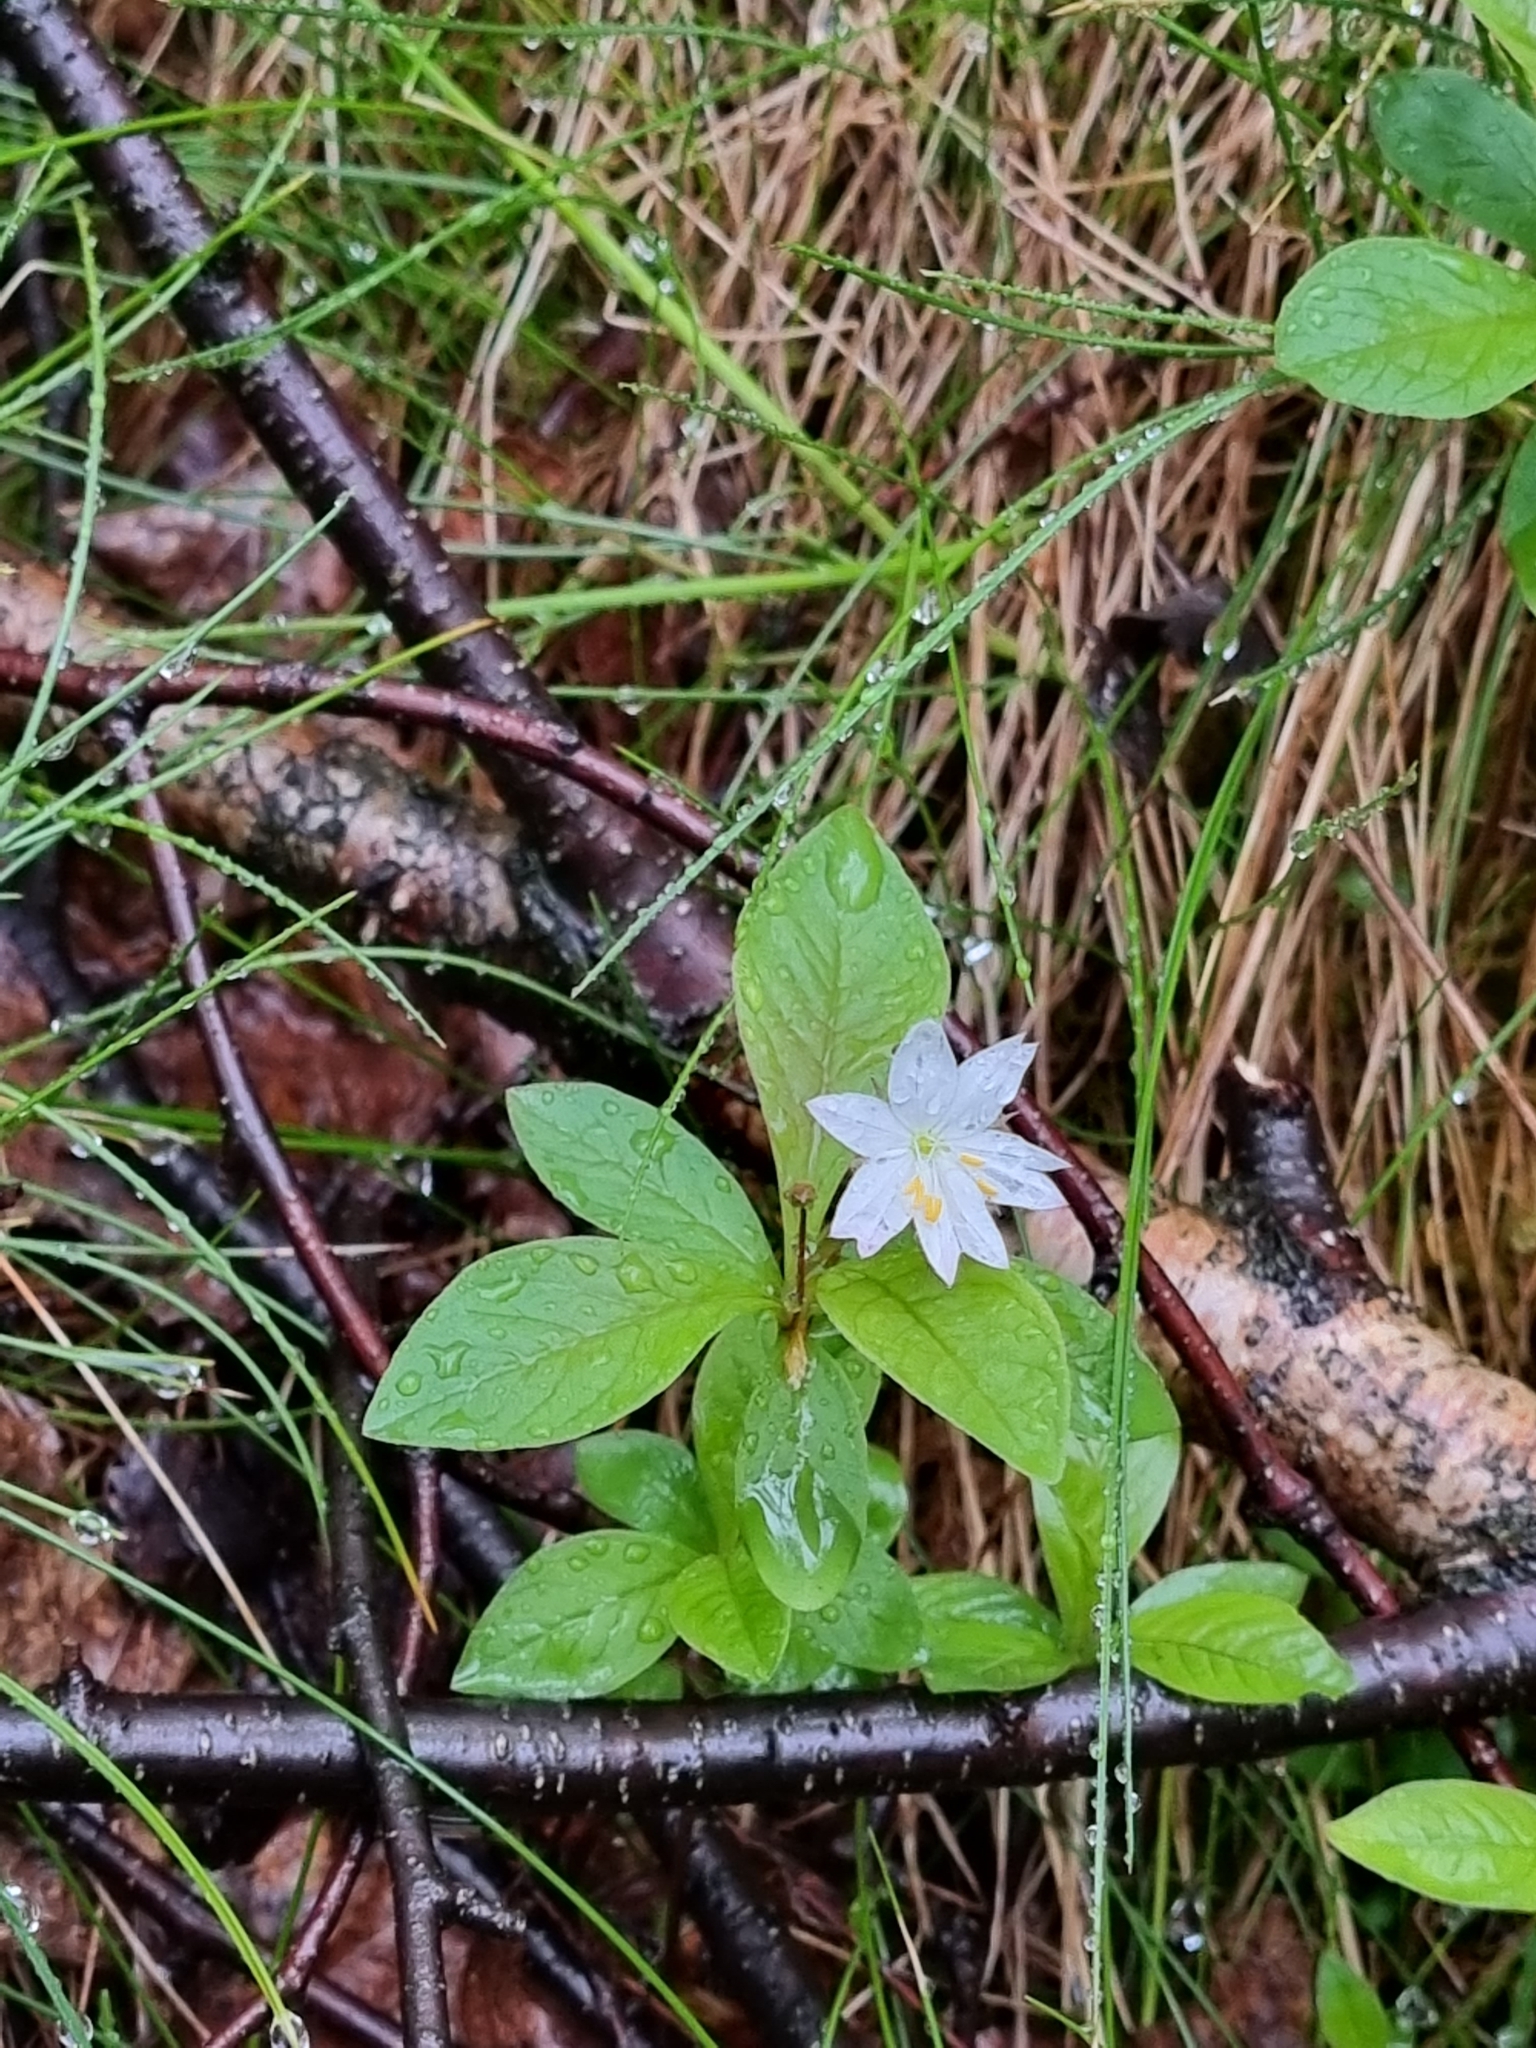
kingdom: Plantae
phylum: Tracheophyta
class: Magnoliopsida
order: Ericales
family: Primulaceae
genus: Lysimachia
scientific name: Lysimachia europaea
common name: Arctic starflower
